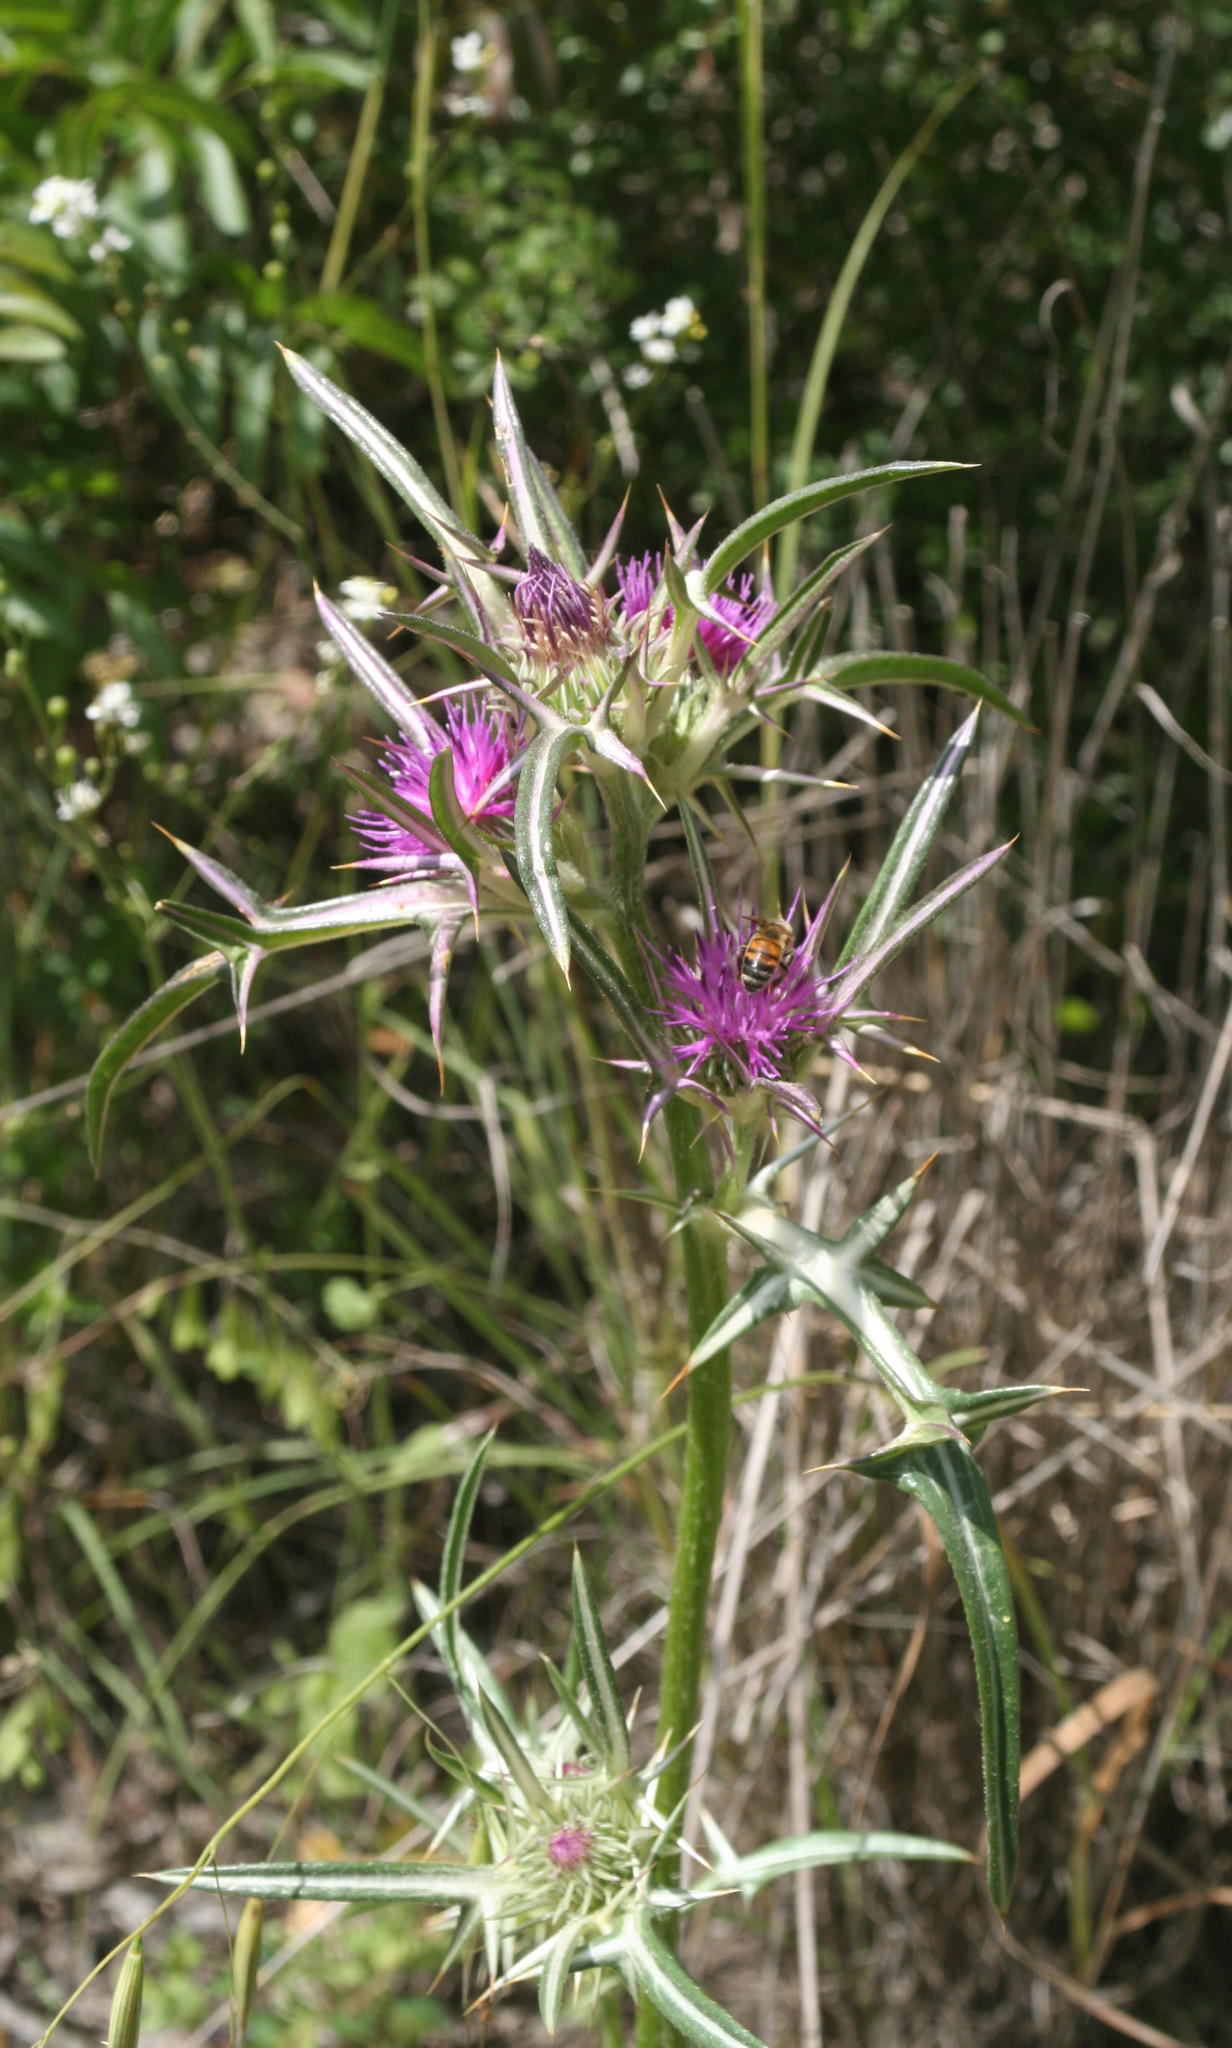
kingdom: Plantae
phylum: Tracheophyta
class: Magnoliopsida
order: Asterales
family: Asteraceae
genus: Notobasis
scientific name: Notobasis syriaca
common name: Syrian thistle
